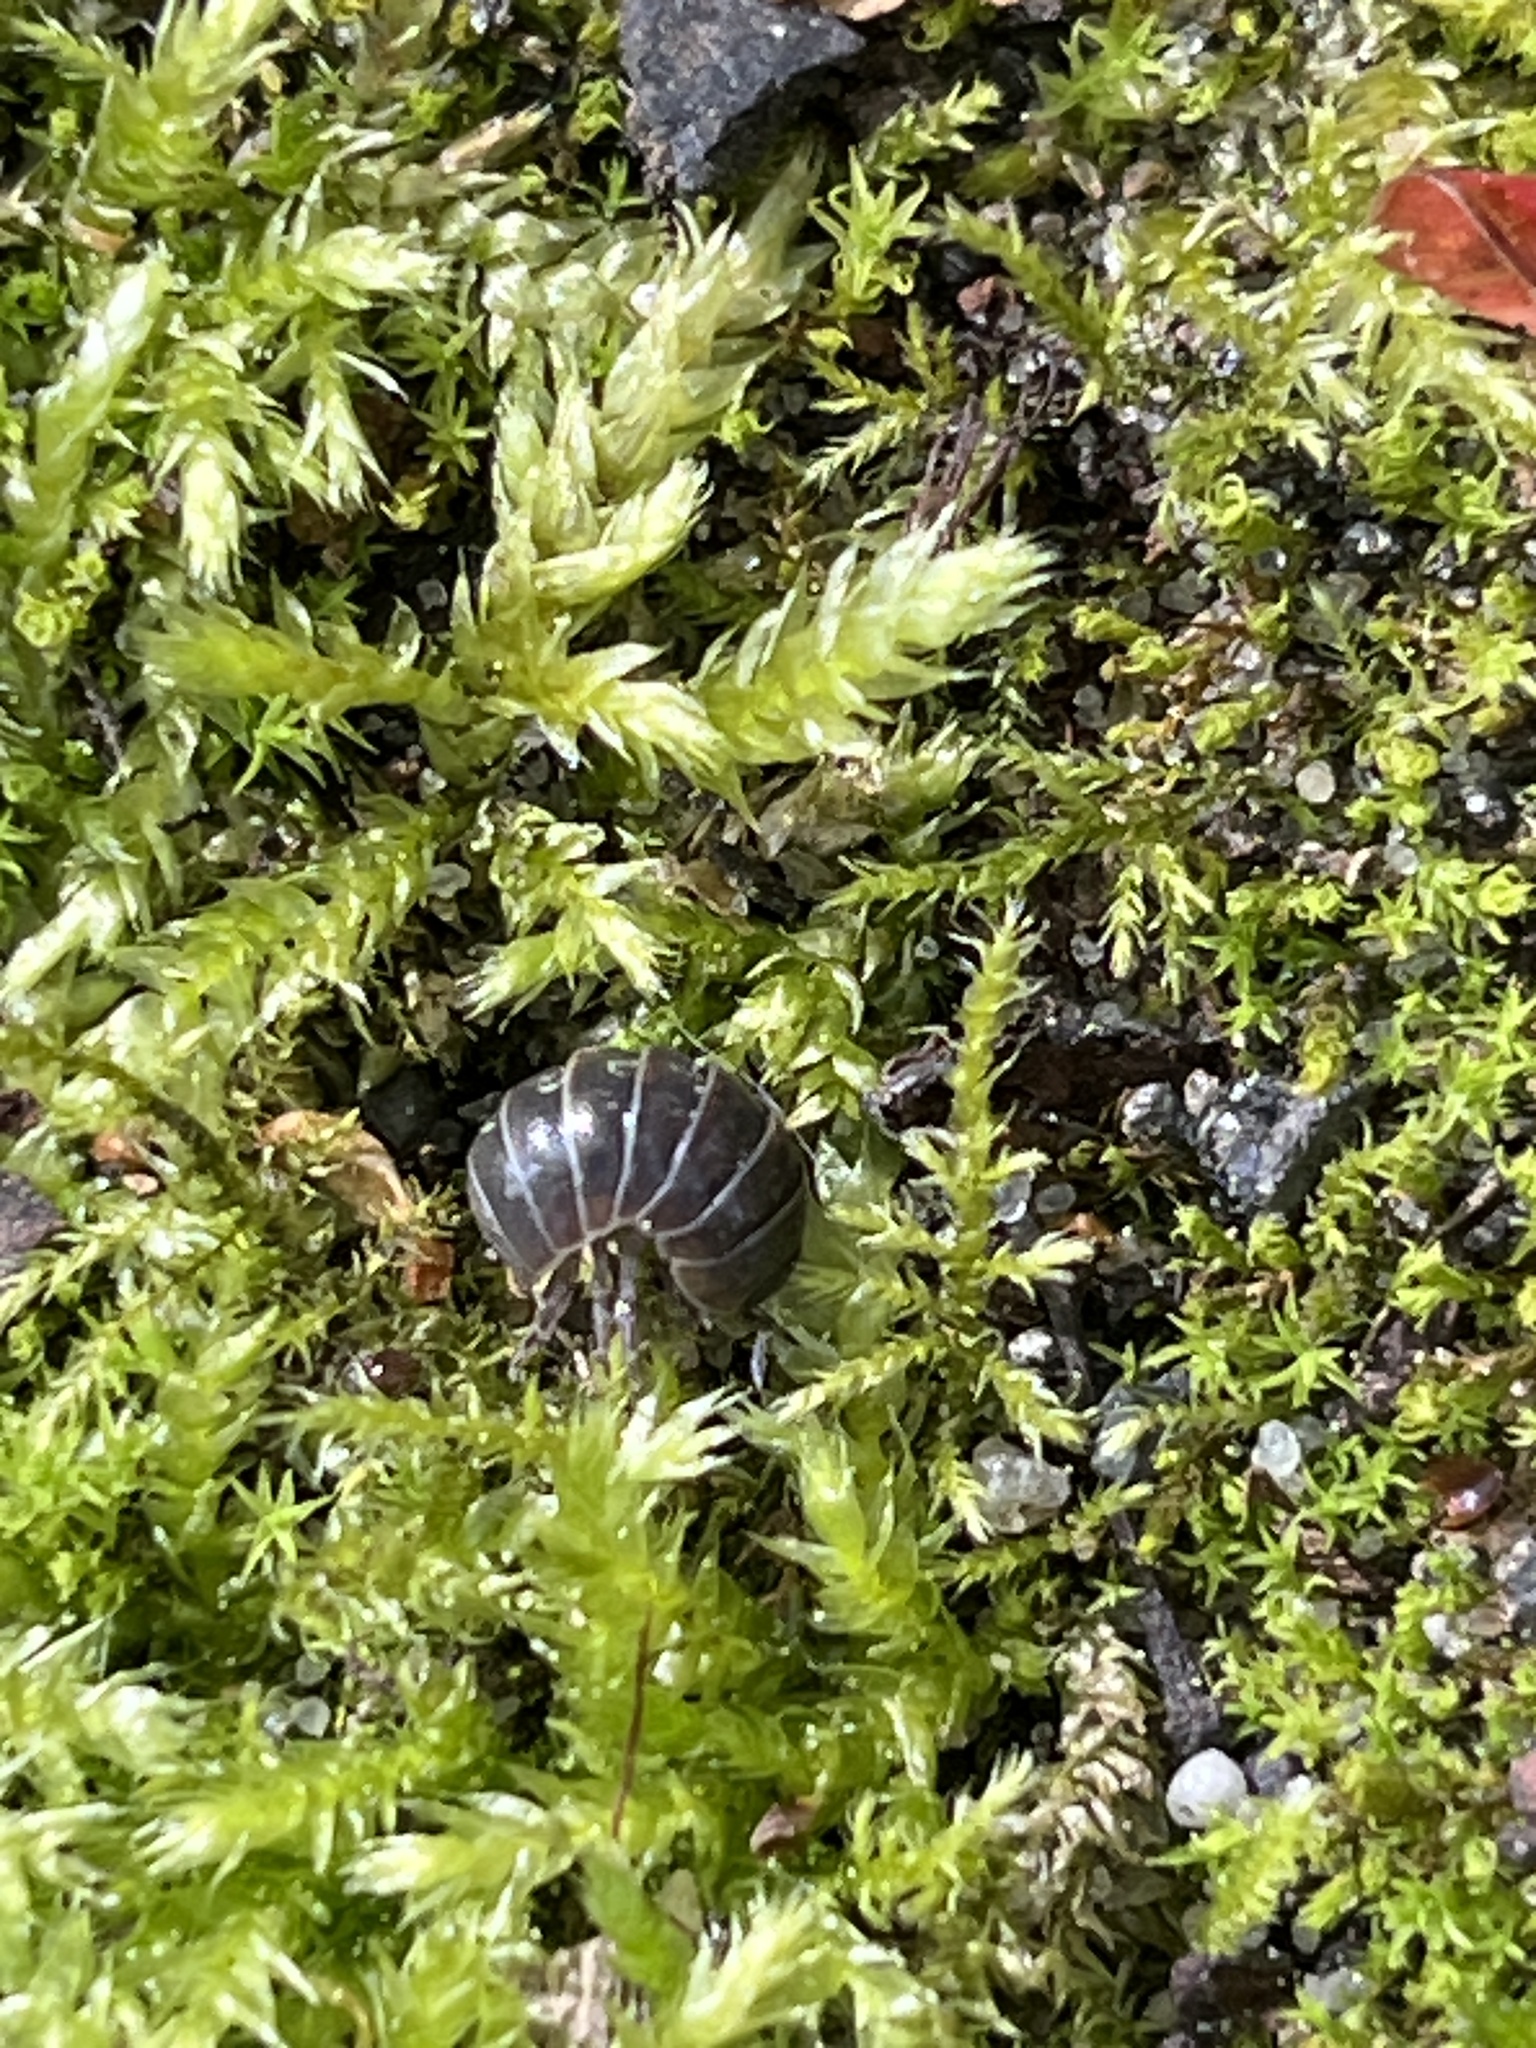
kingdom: Animalia
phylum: Arthropoda
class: Malacostraca
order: Isopoda
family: Armadillidiidae
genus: Armadillidium
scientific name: Armadillidium vulgare
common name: Common pill woodlouse
